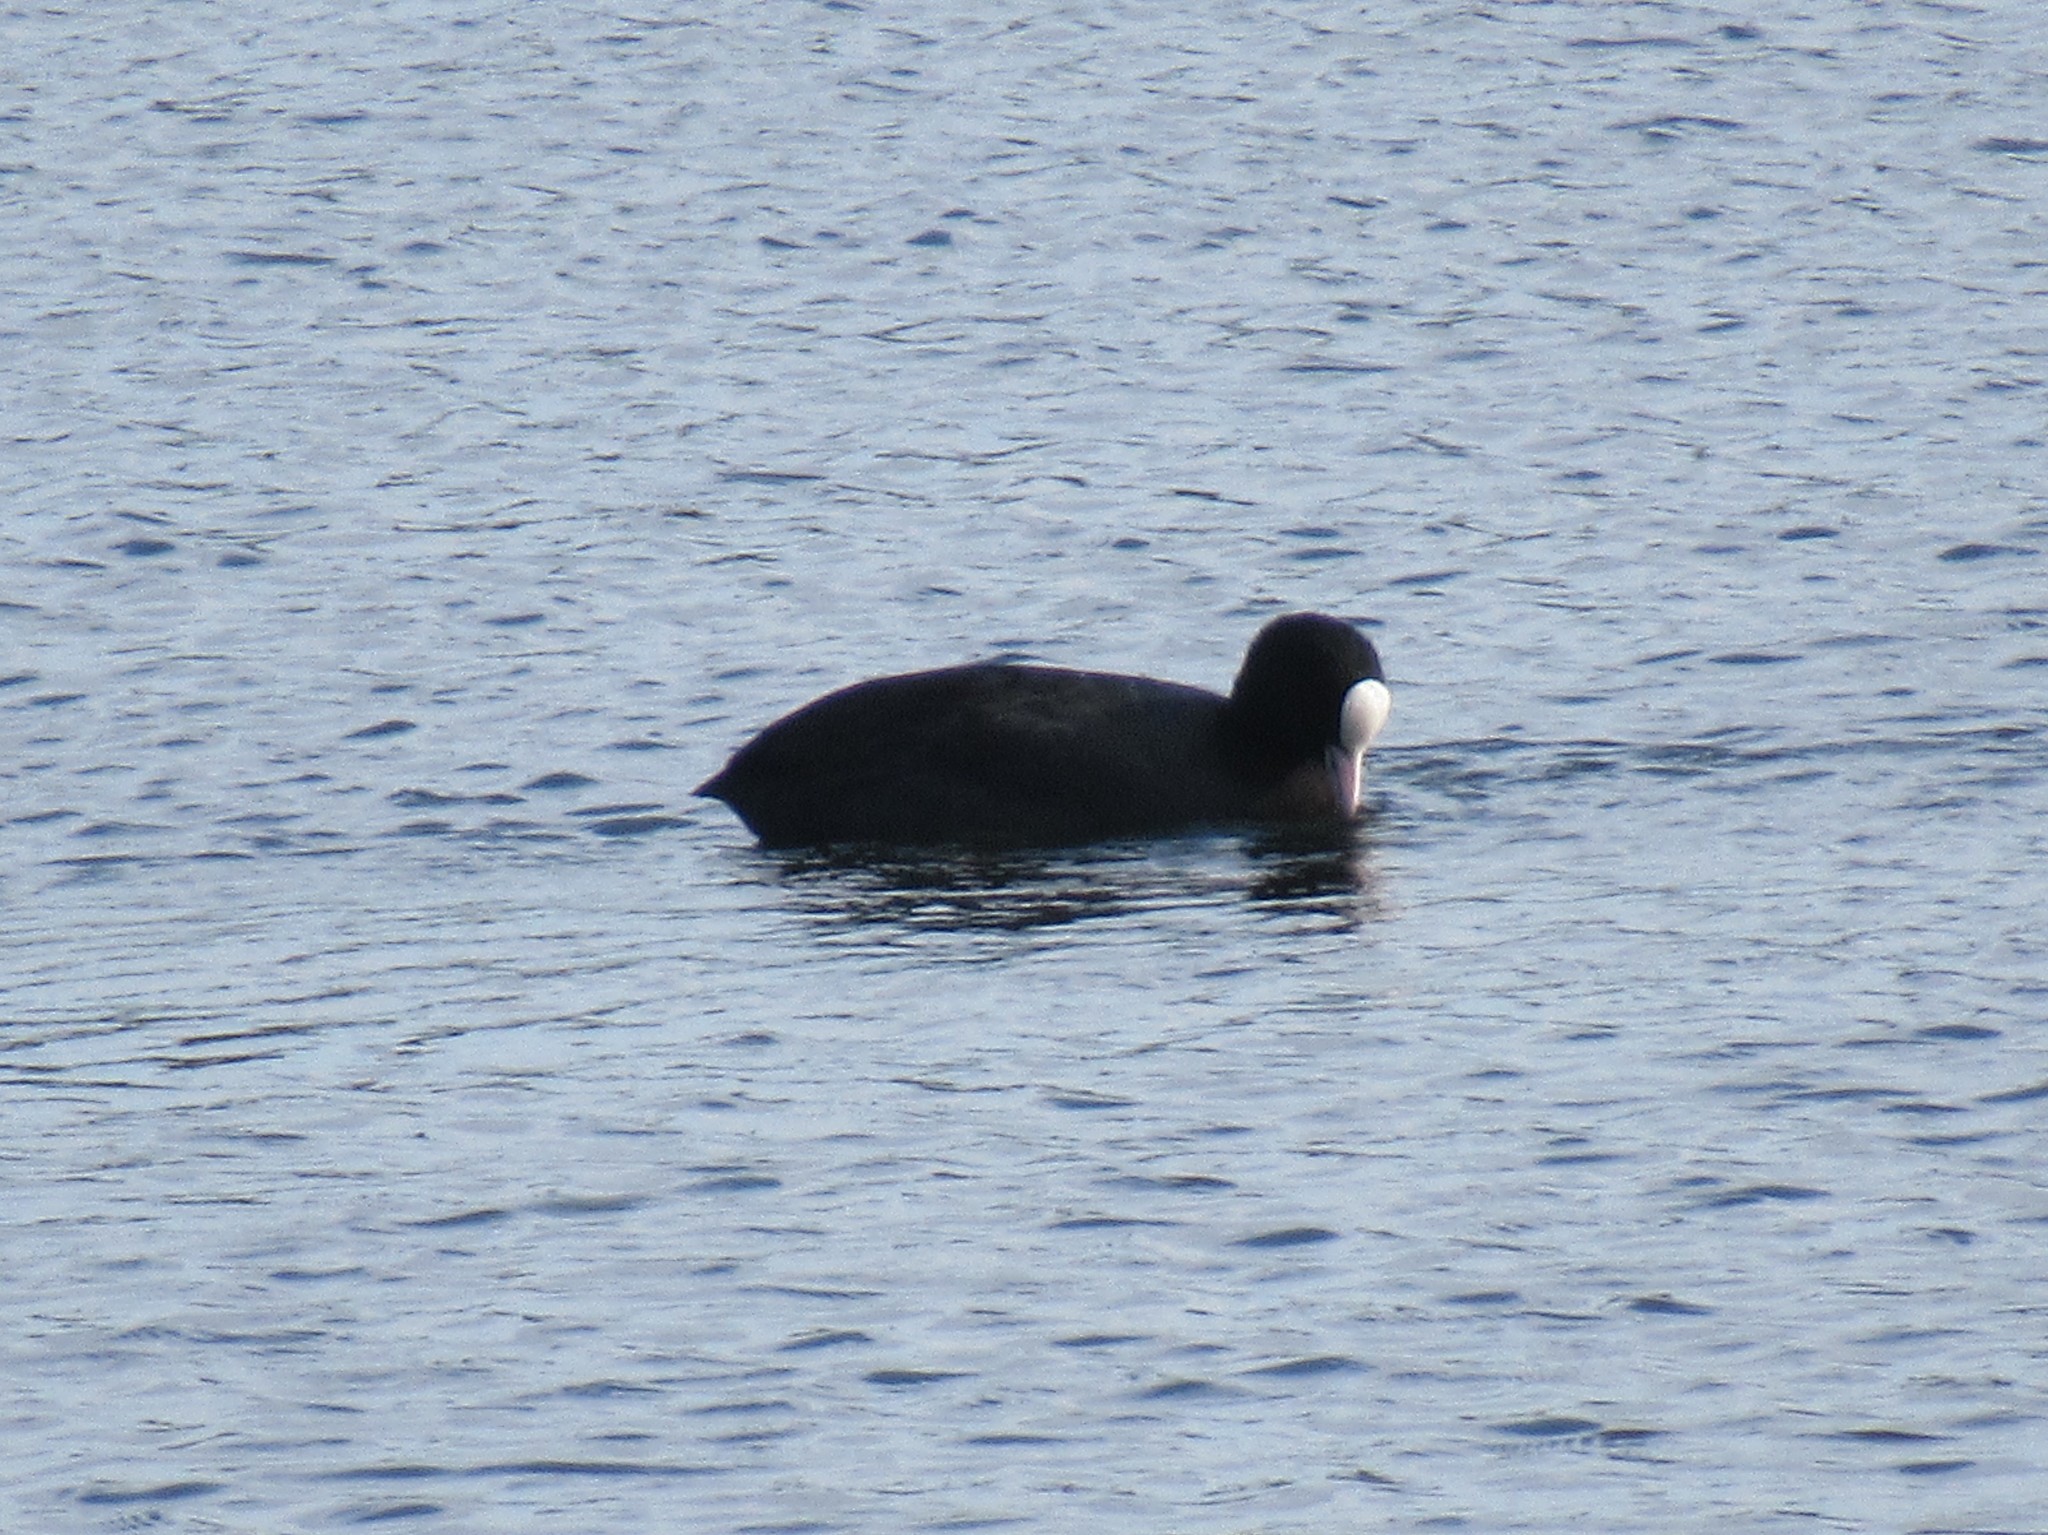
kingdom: Animalia
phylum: Chordata
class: Aves
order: Gruiformes
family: Rallidae
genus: Fulica
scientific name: Fulica atra
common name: Eurasian coot
